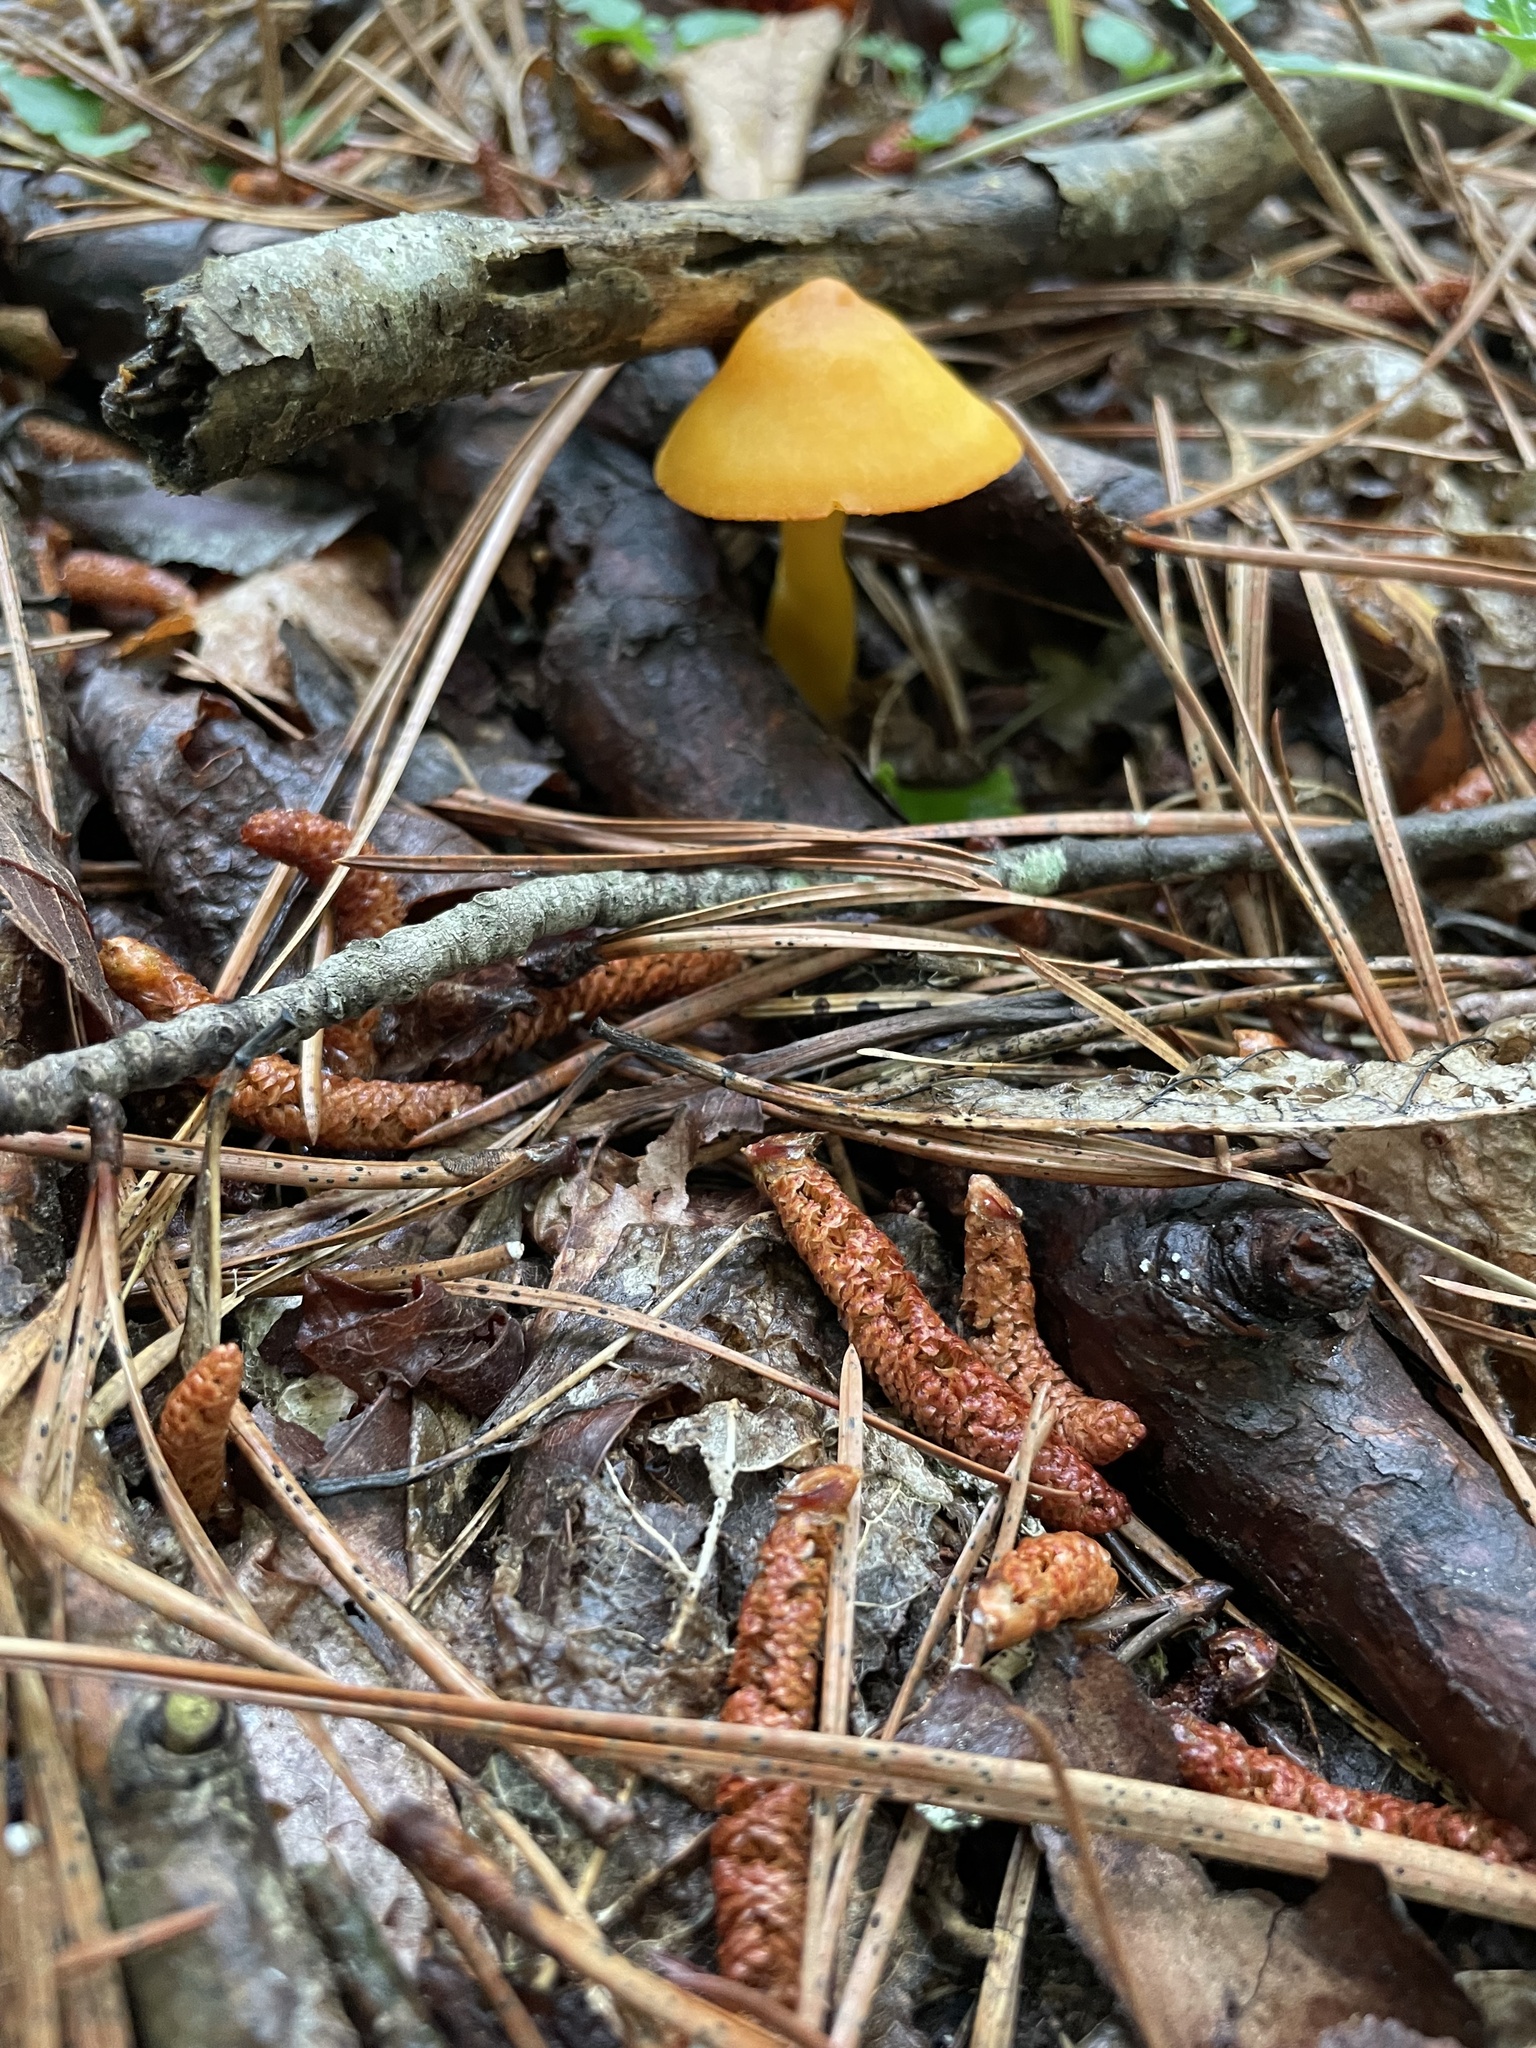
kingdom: Fungi
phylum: Basidiomycota
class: Agaricomycetes
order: Agaricales
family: Hygrophoraceae
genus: Humidicutis
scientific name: Humidicutis marginata
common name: Orange gilled waxcap
